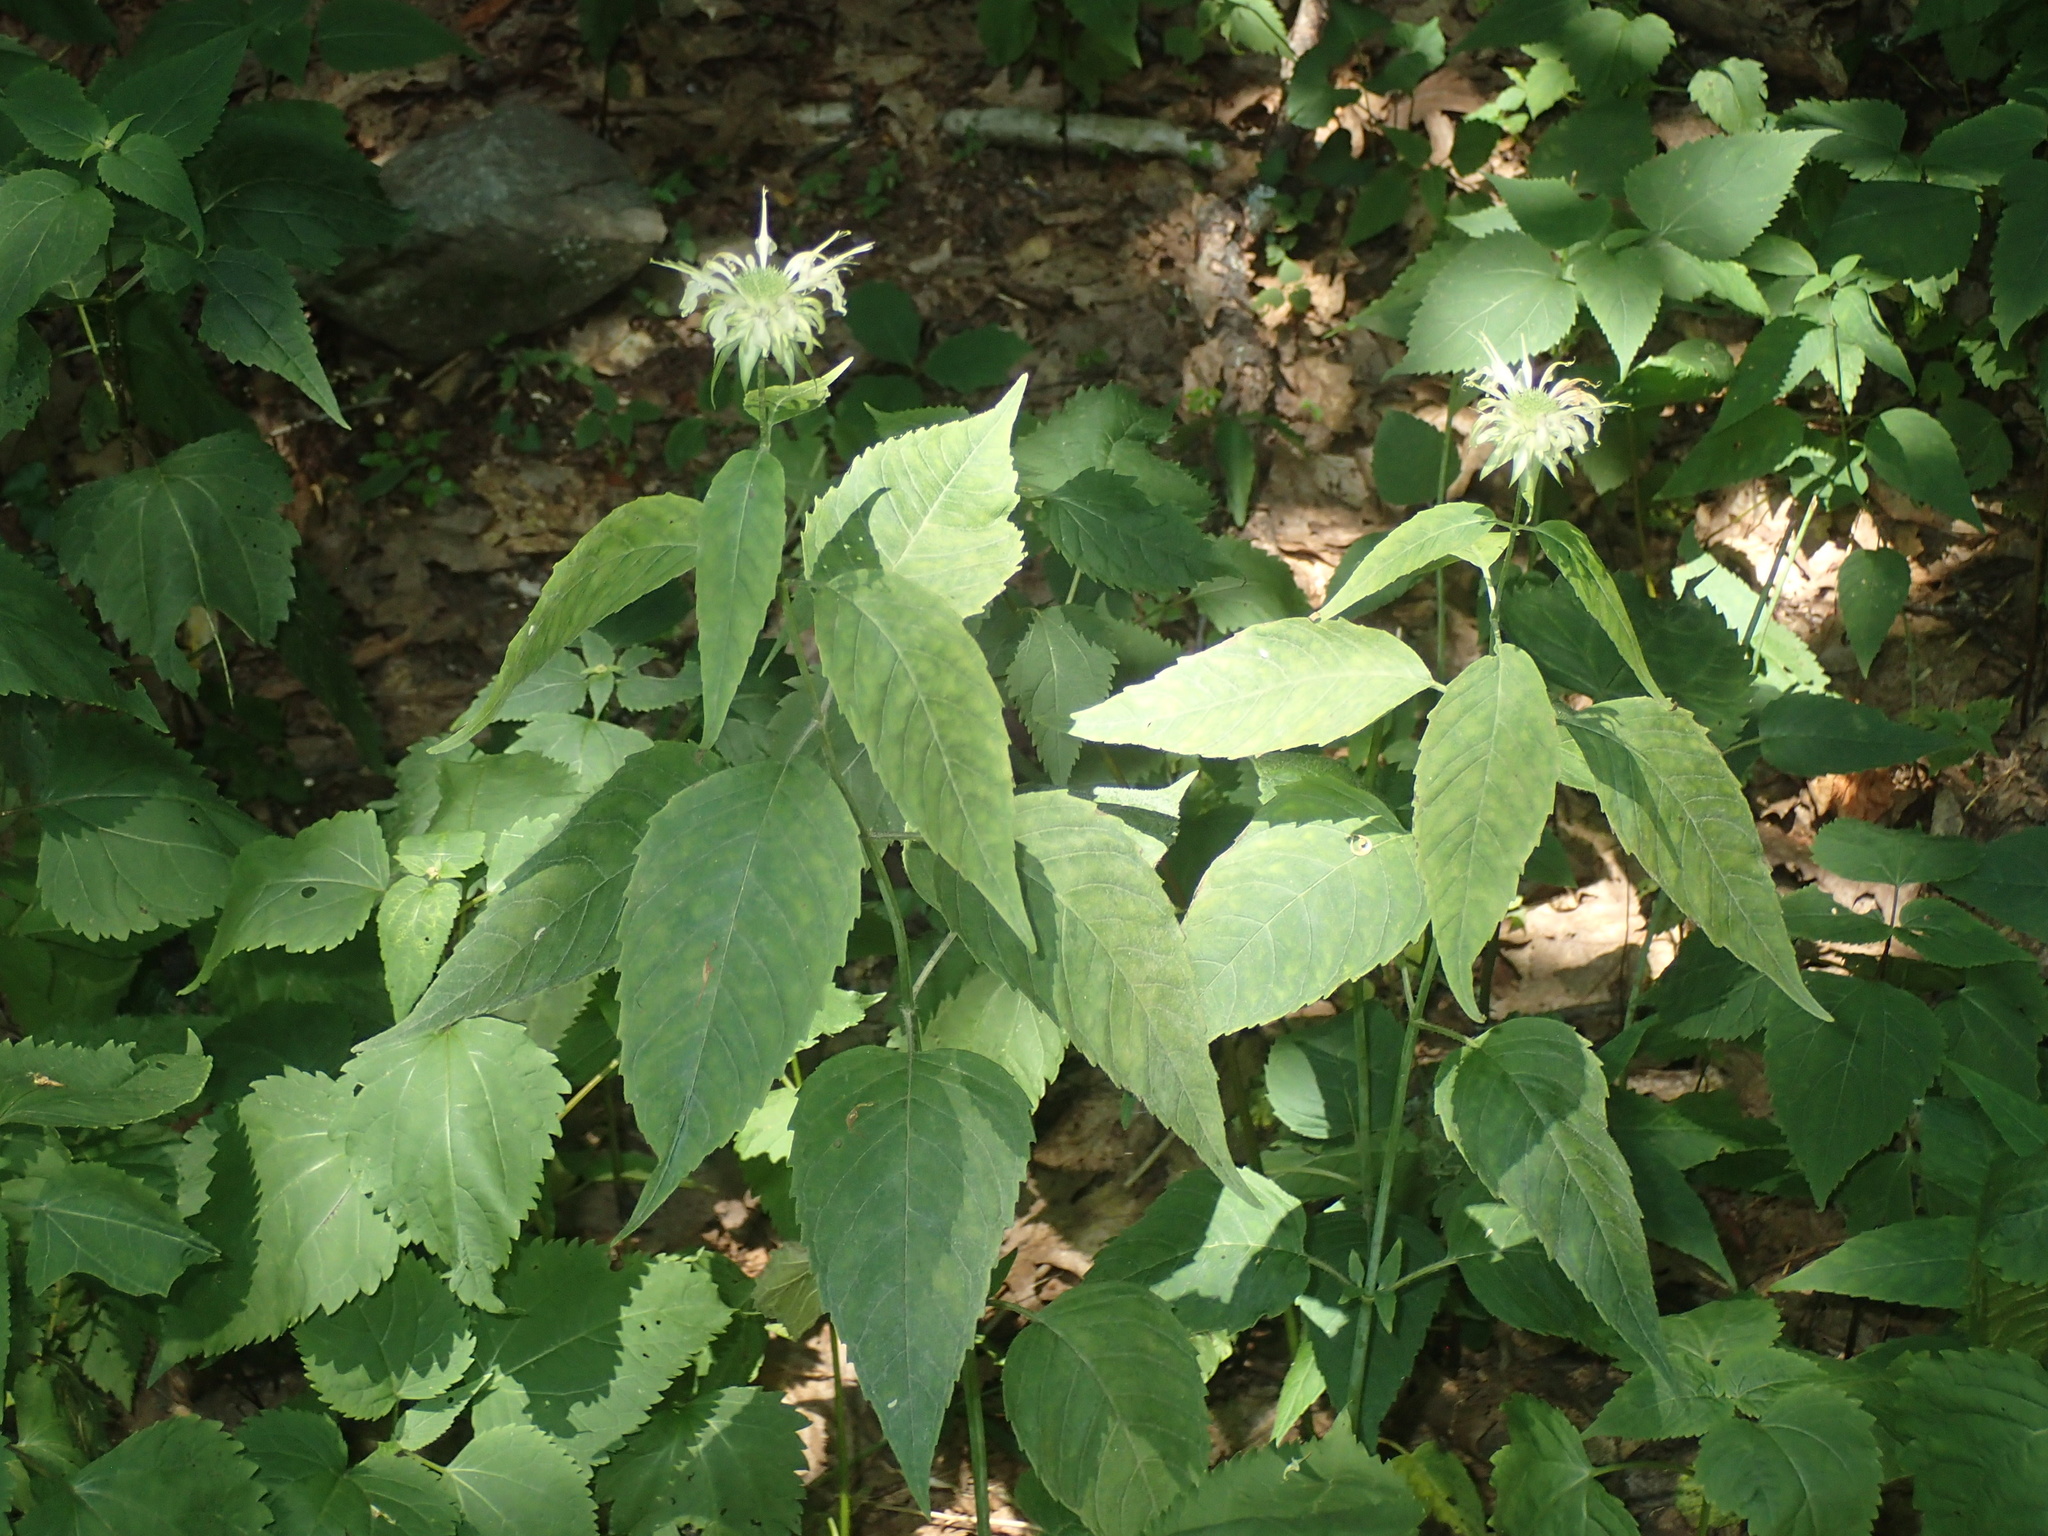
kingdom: Plantae
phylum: Tracheophyta
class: Magnoliopsida
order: Lamiales
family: Lamiaceae
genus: Monarda
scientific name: Monarda clinopodia
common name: Basil beebalm
